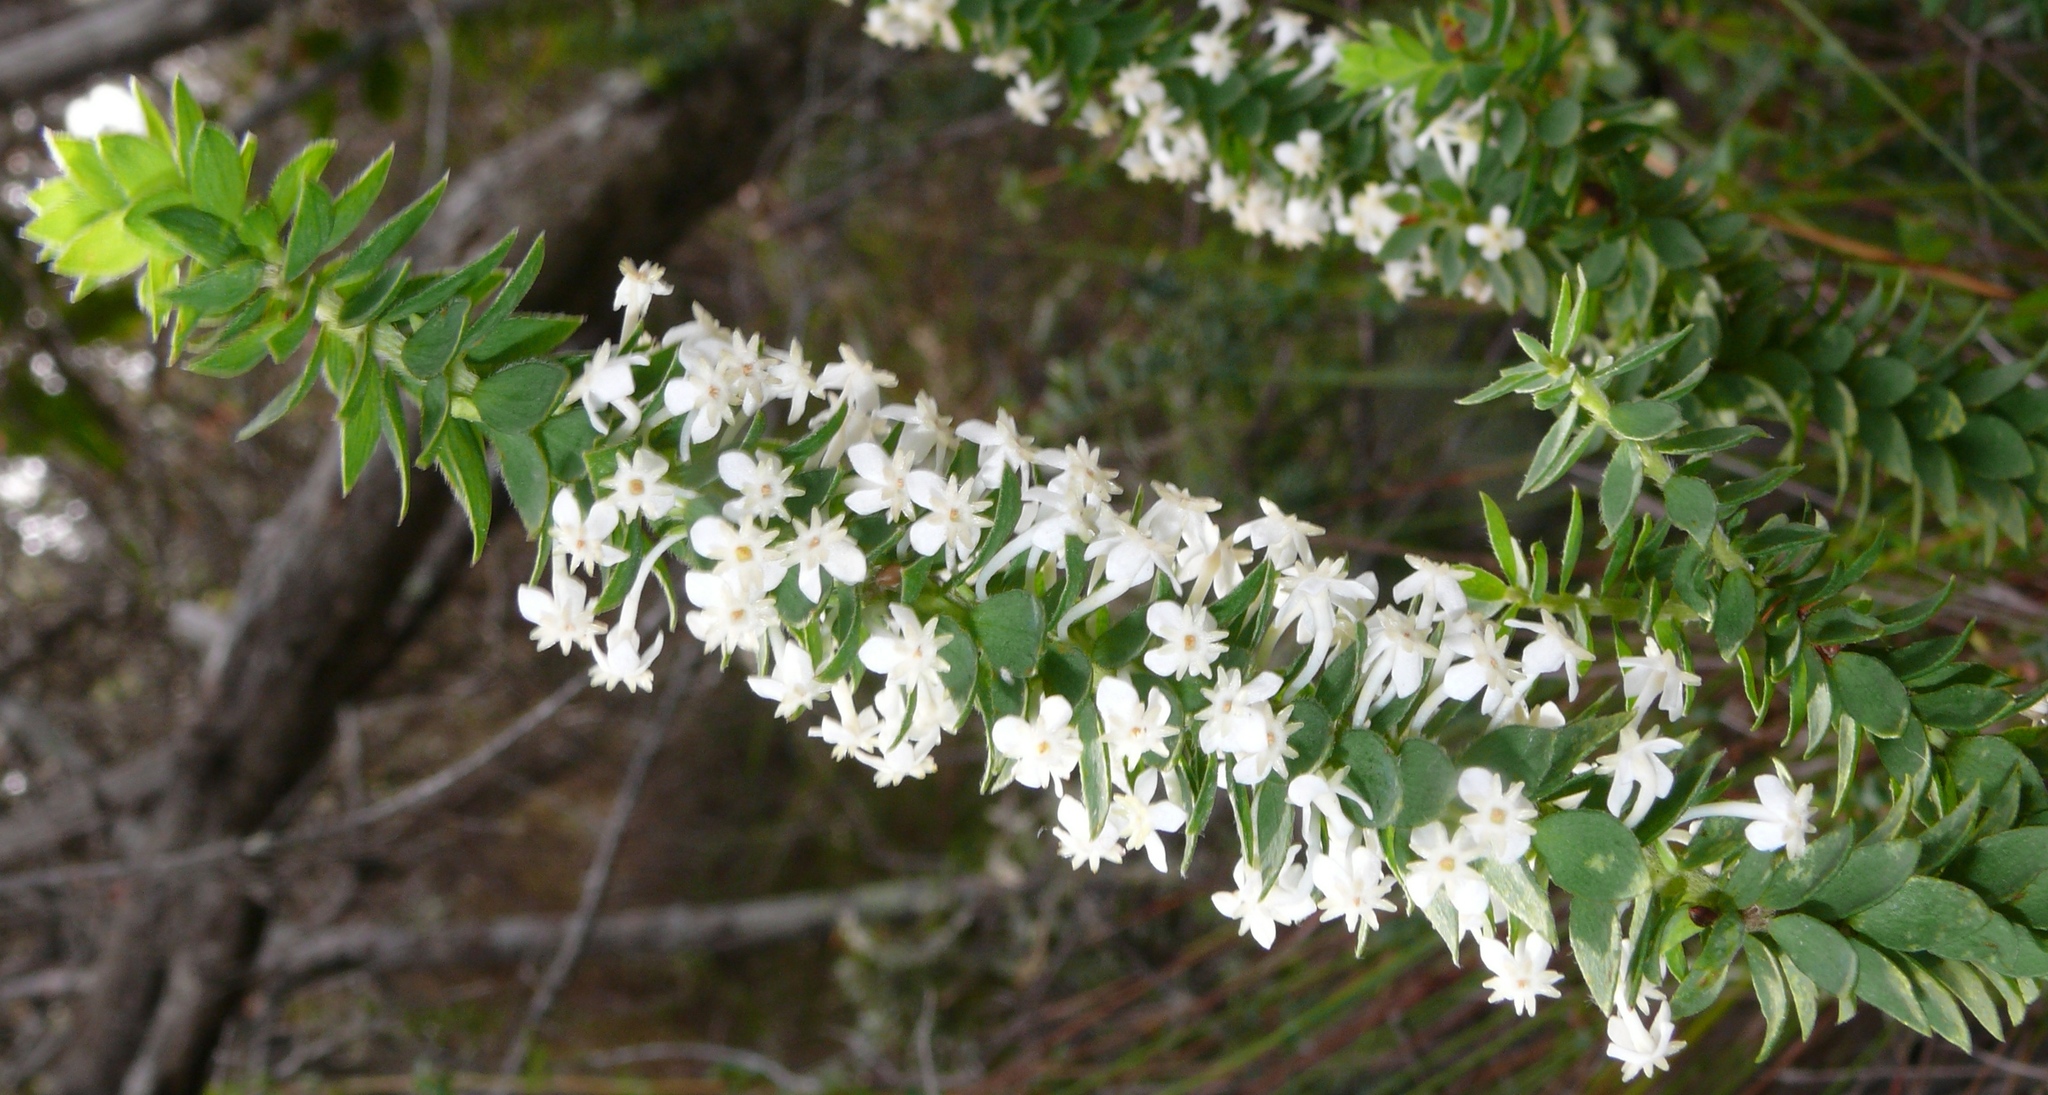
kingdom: Plantae
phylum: Tracheophyta
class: Magnoliopsida
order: Malvales
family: Thymelaeaceae
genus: Struthiola
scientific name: Struthiola hirsuta
